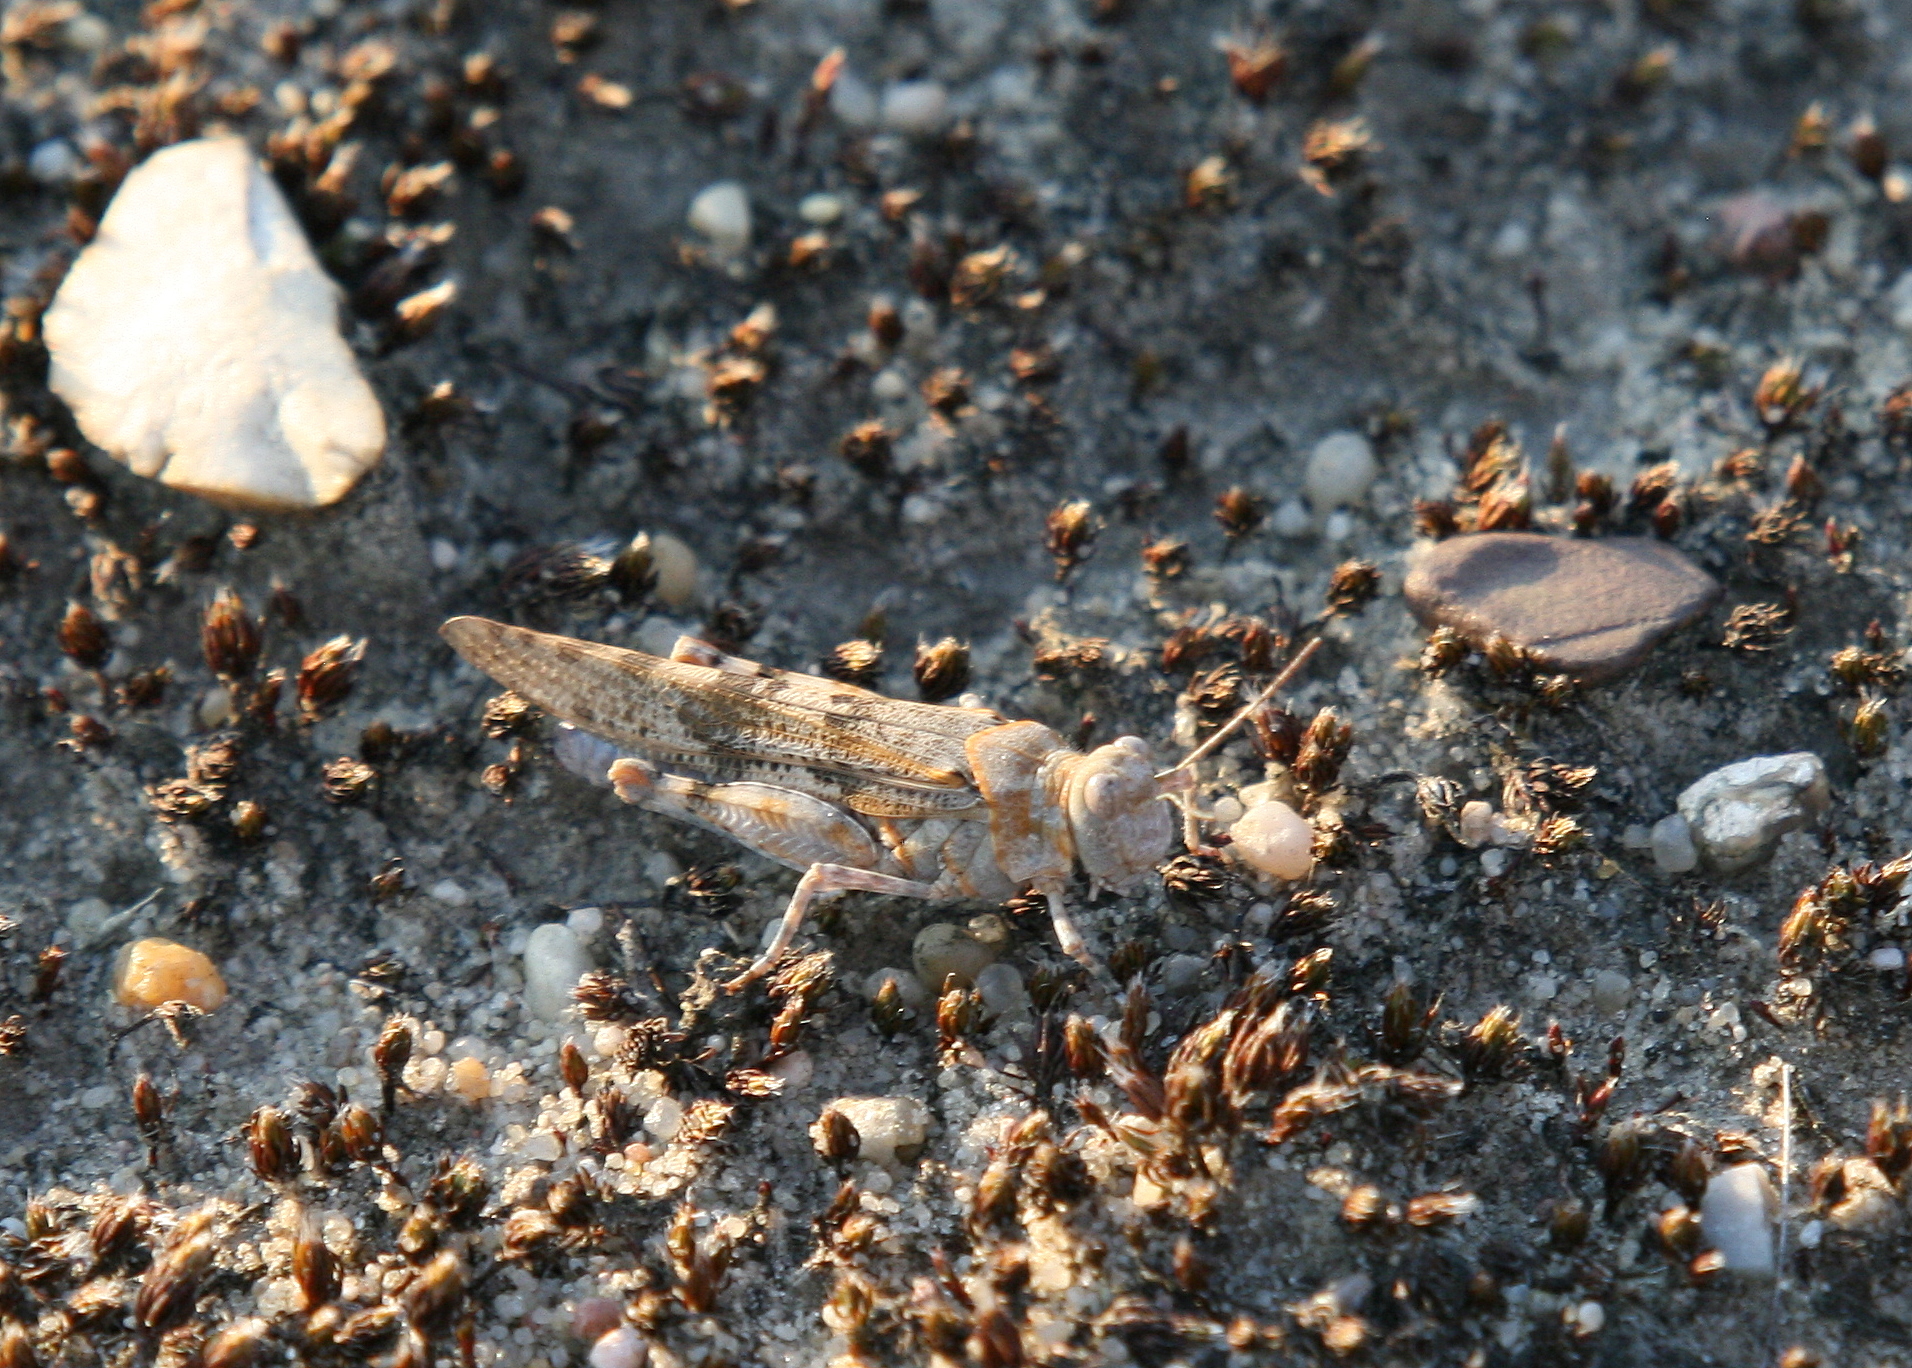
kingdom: Animalia
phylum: Arthropoda
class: Insecta
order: Orthoptera
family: Acrididae
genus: Sphingonotus
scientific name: Sphingonotus caerulans
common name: Blue-winged locust
